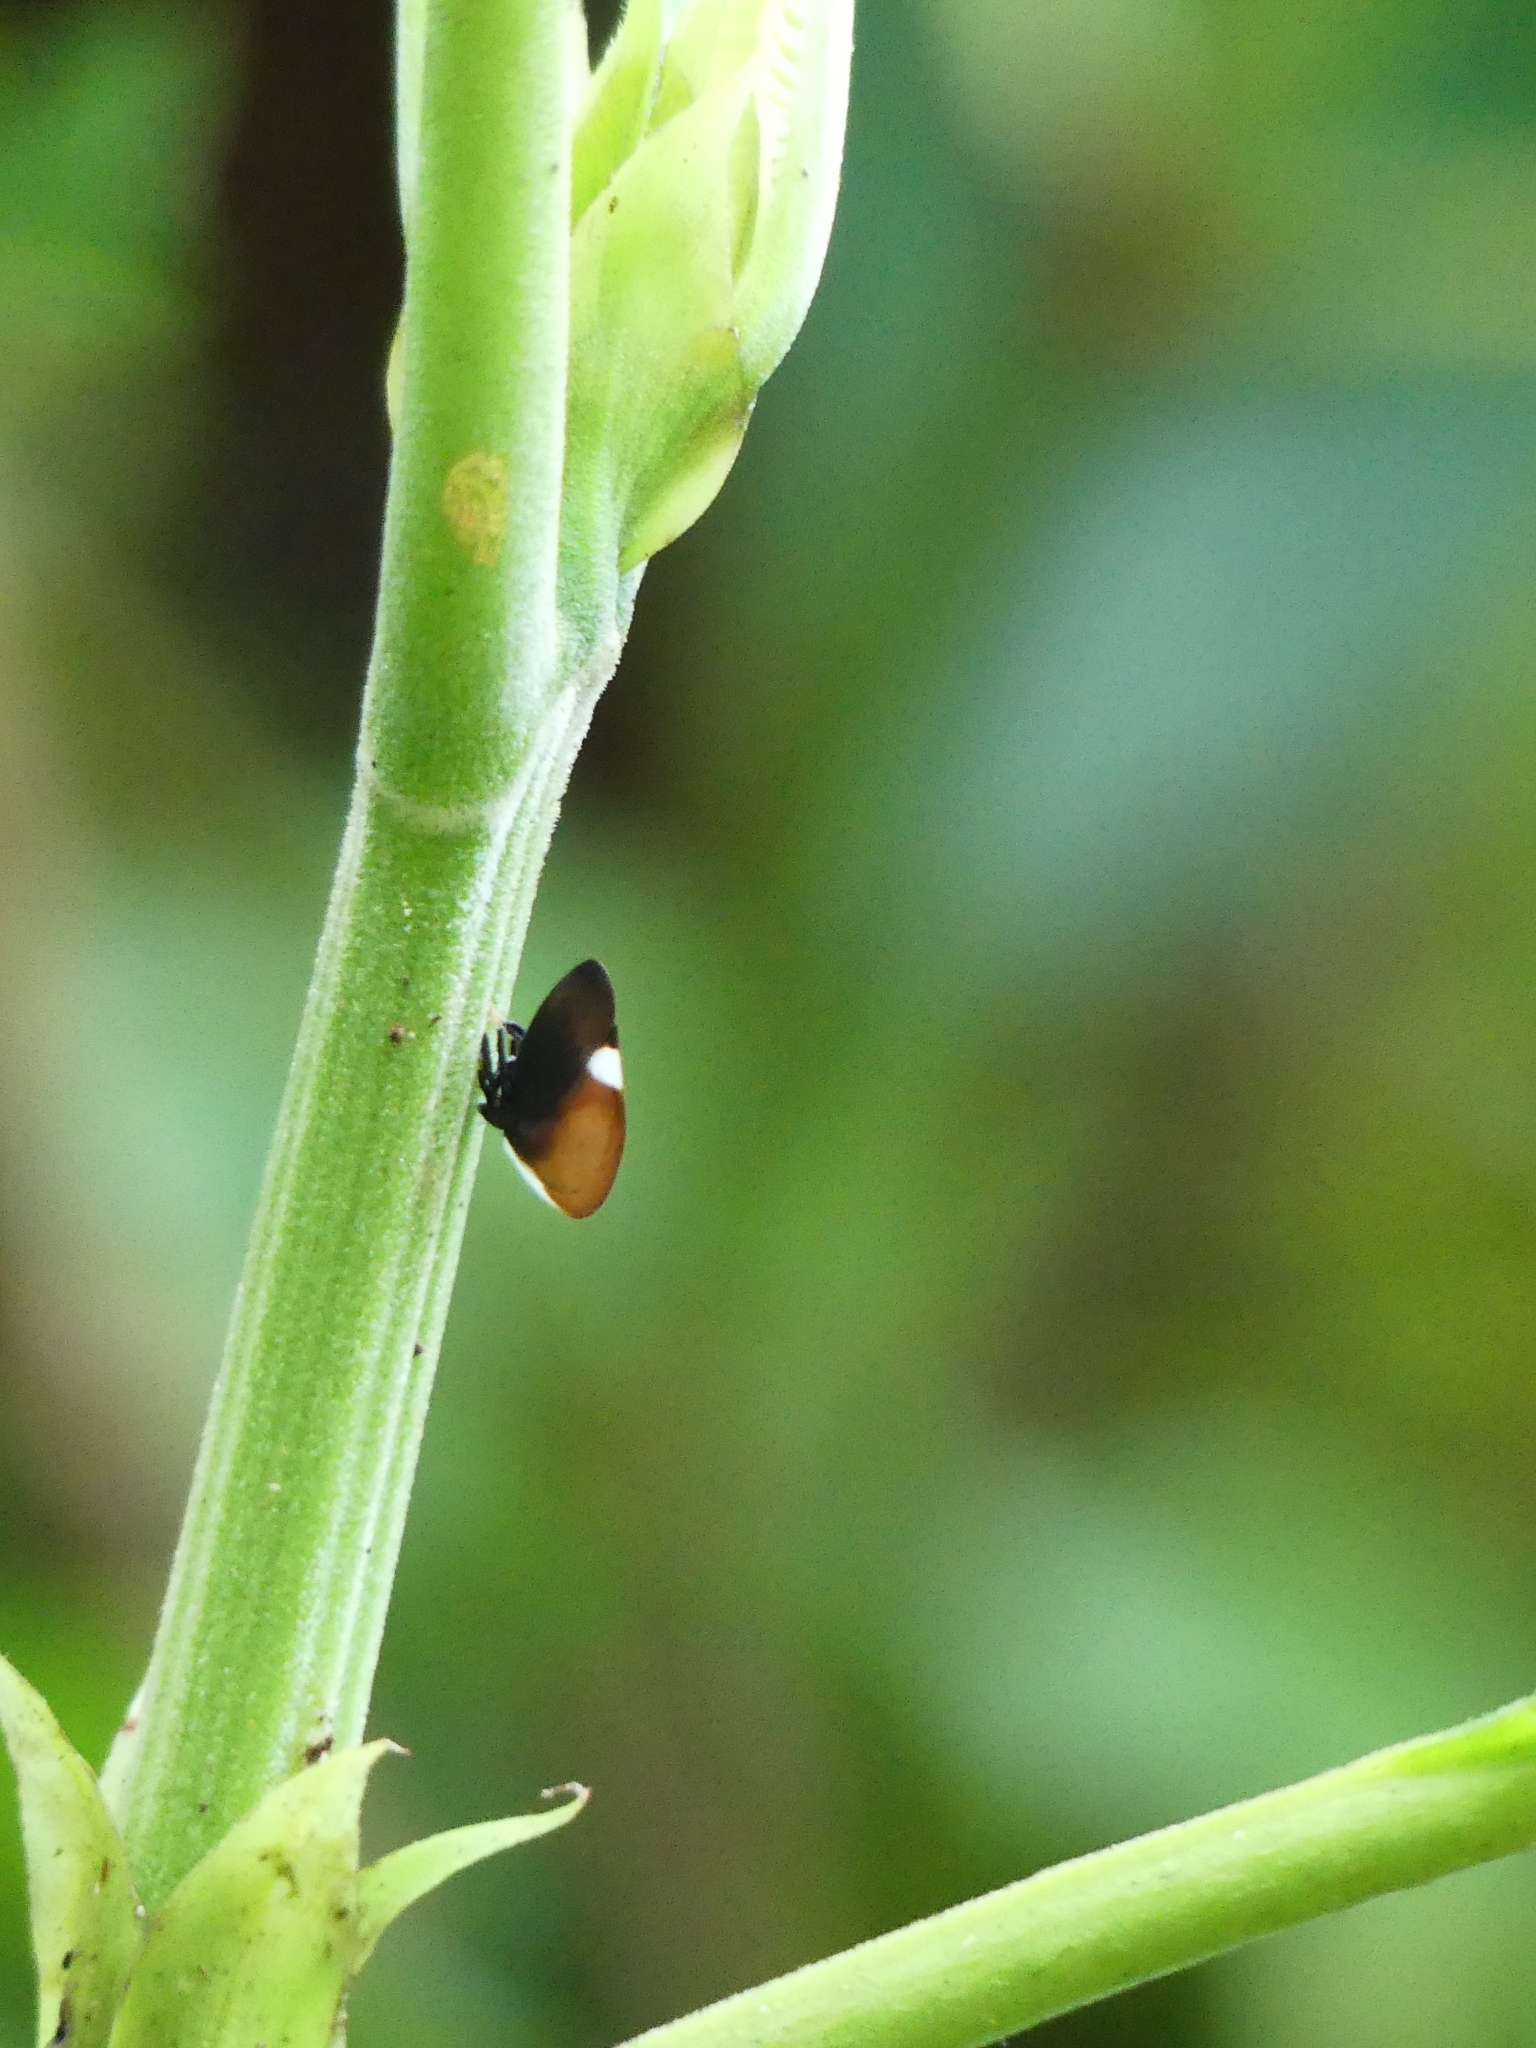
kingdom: Animalia
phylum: Arthropoda
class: Insecta
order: Hemiptera
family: Membracidae
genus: Membracis
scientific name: Membracis tectigera
